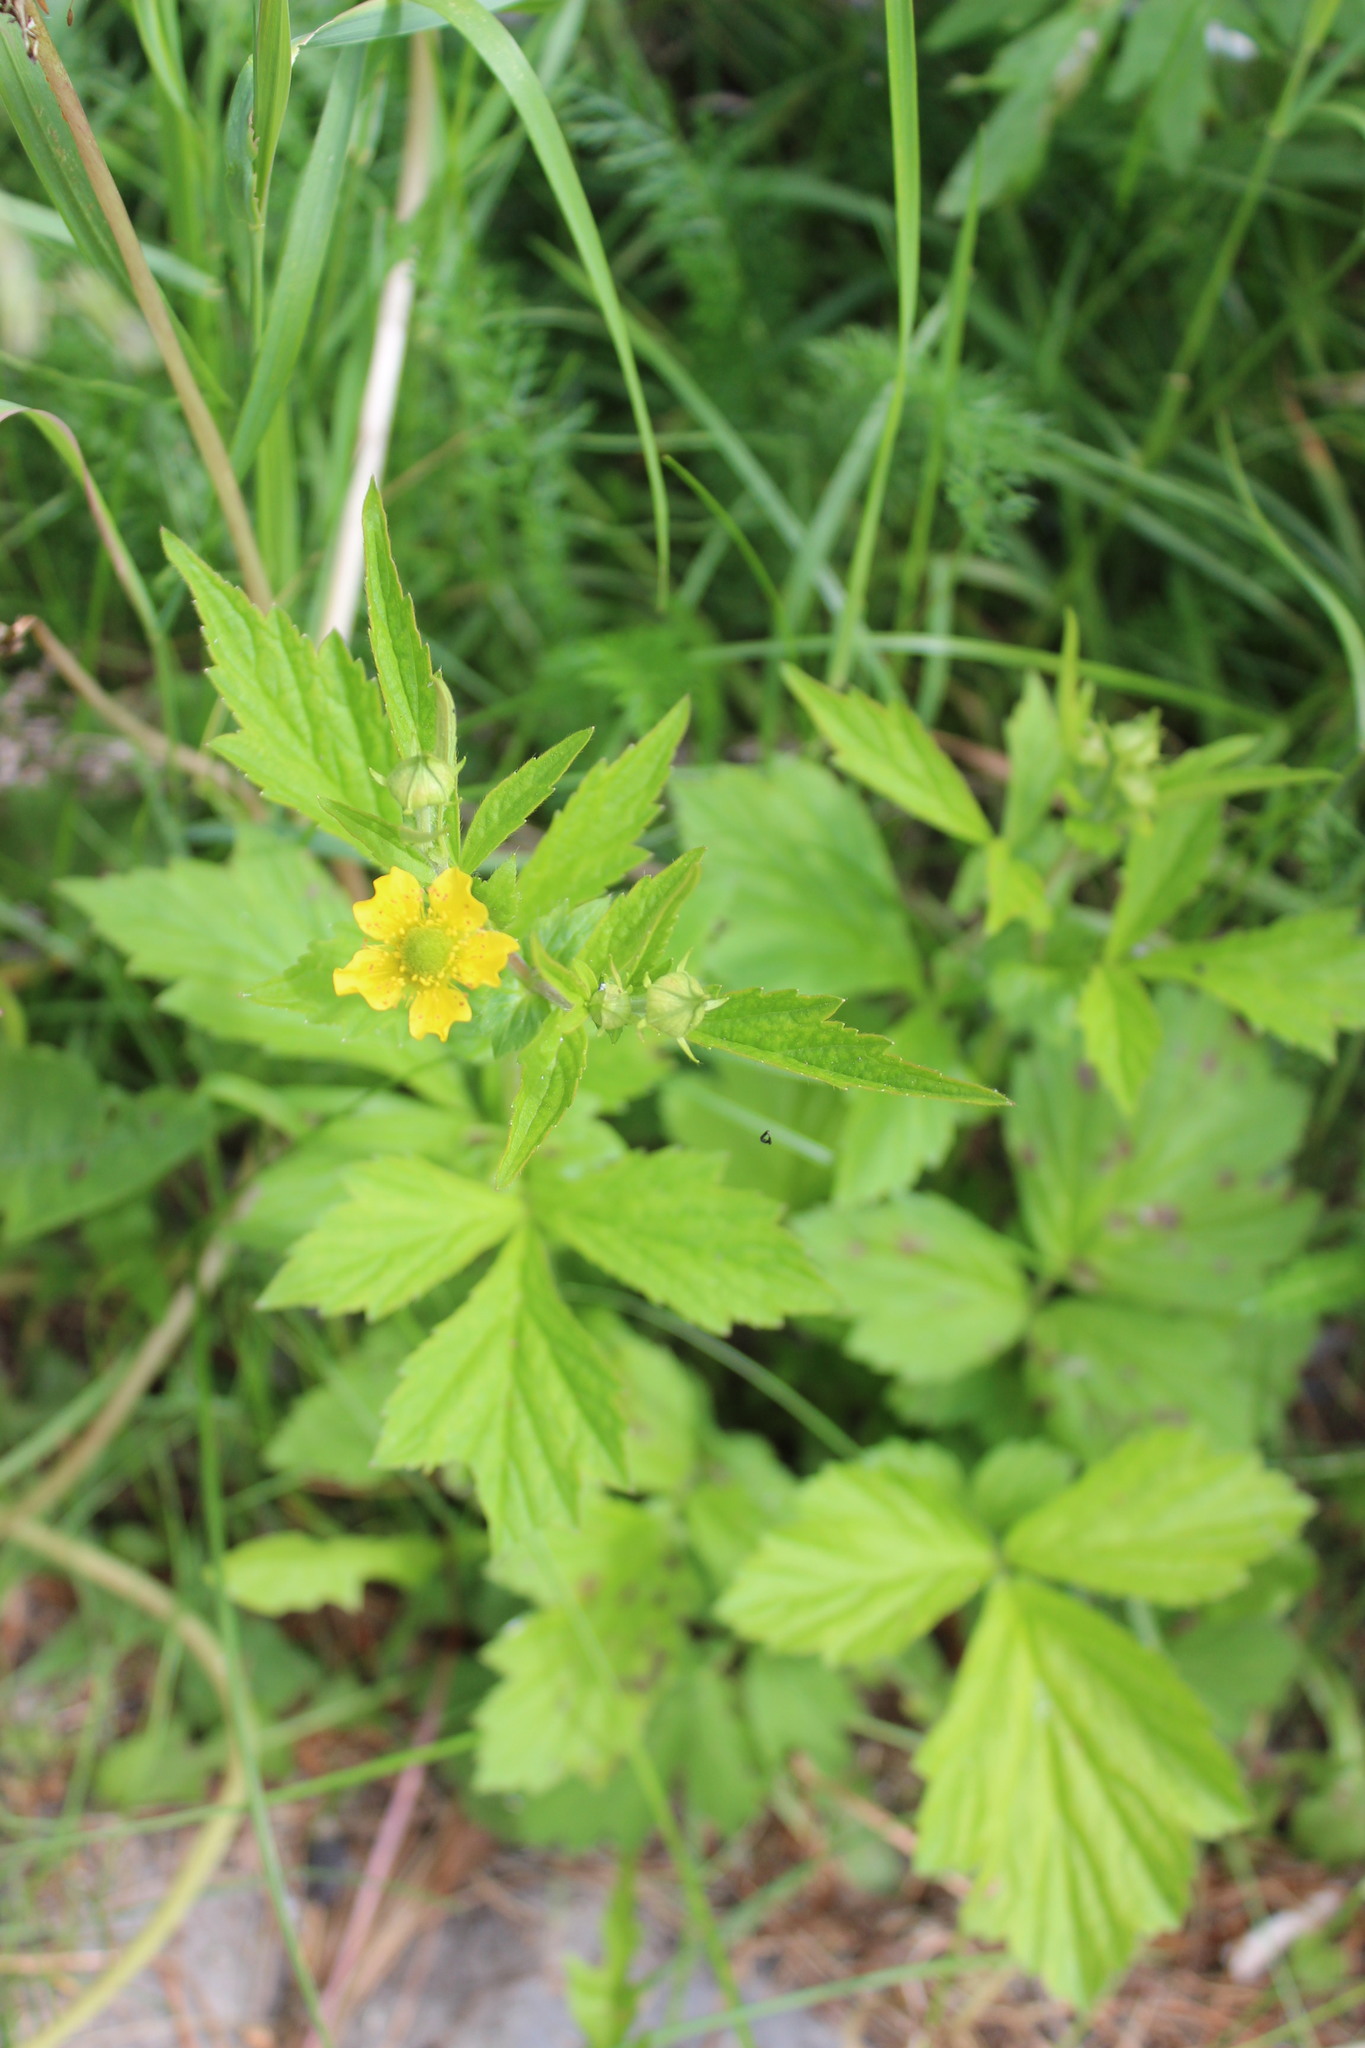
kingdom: Plantae
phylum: Tracheophyta
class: Magnoliopsida
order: Rosales
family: Rosaceae
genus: Geum
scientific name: Geum aleppicum
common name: Yellow avens
